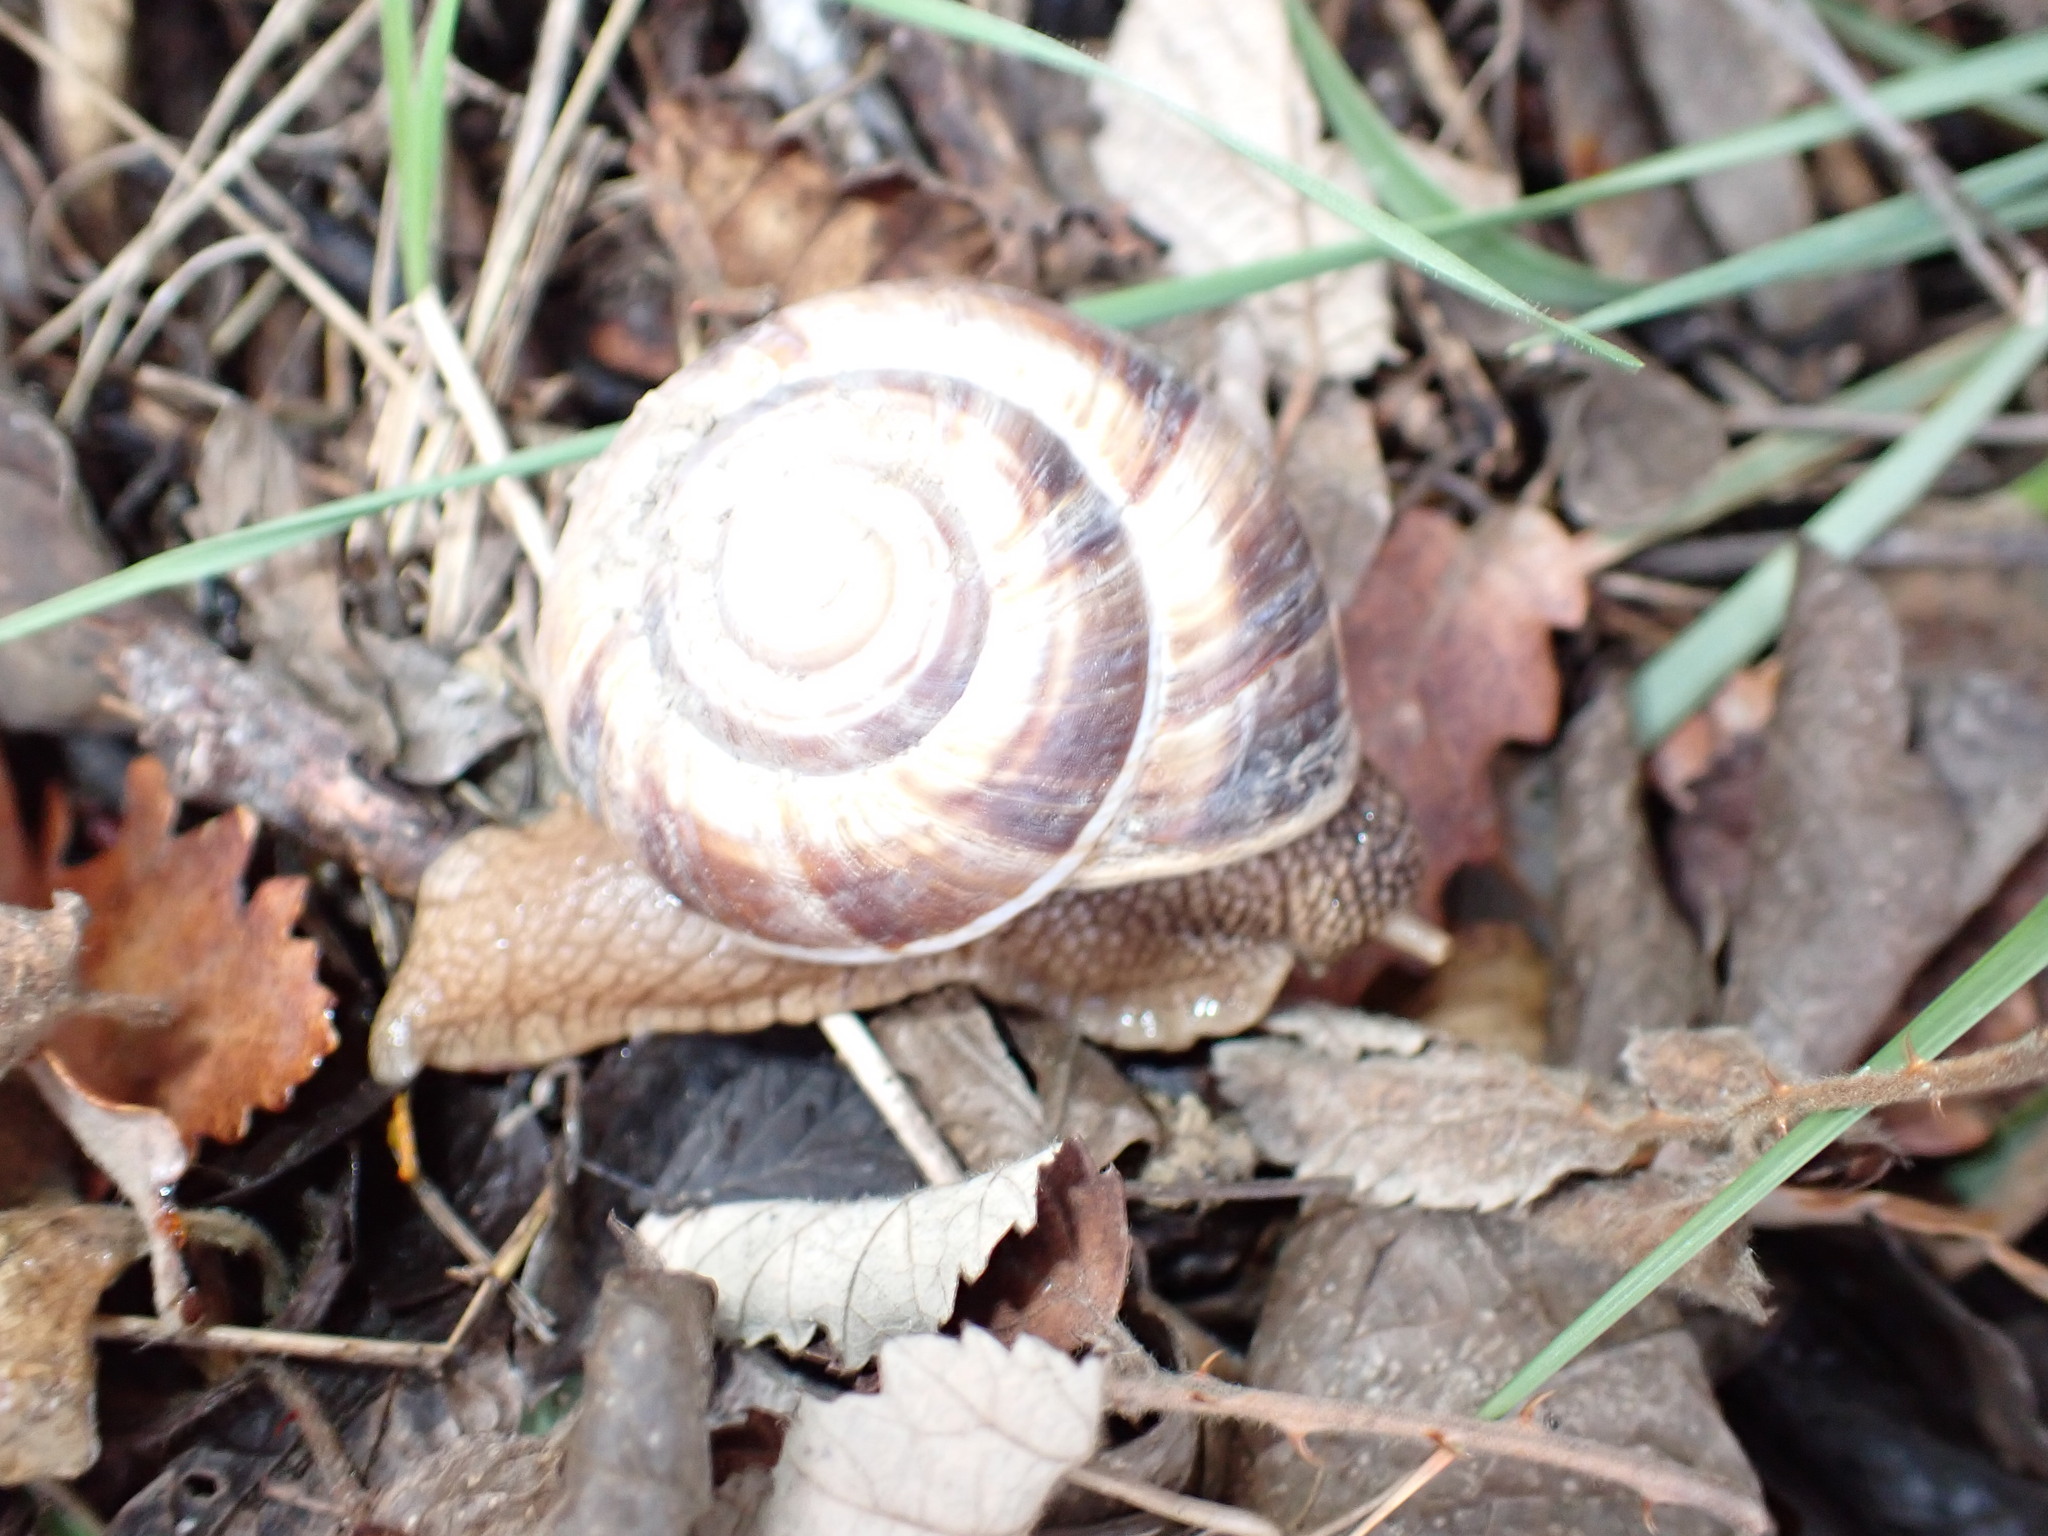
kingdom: Animalia
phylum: Mollusca
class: Gastropoda
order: Stylommatophora
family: Helicidae
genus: Helix
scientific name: Helix lucorum
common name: Turkish snail
